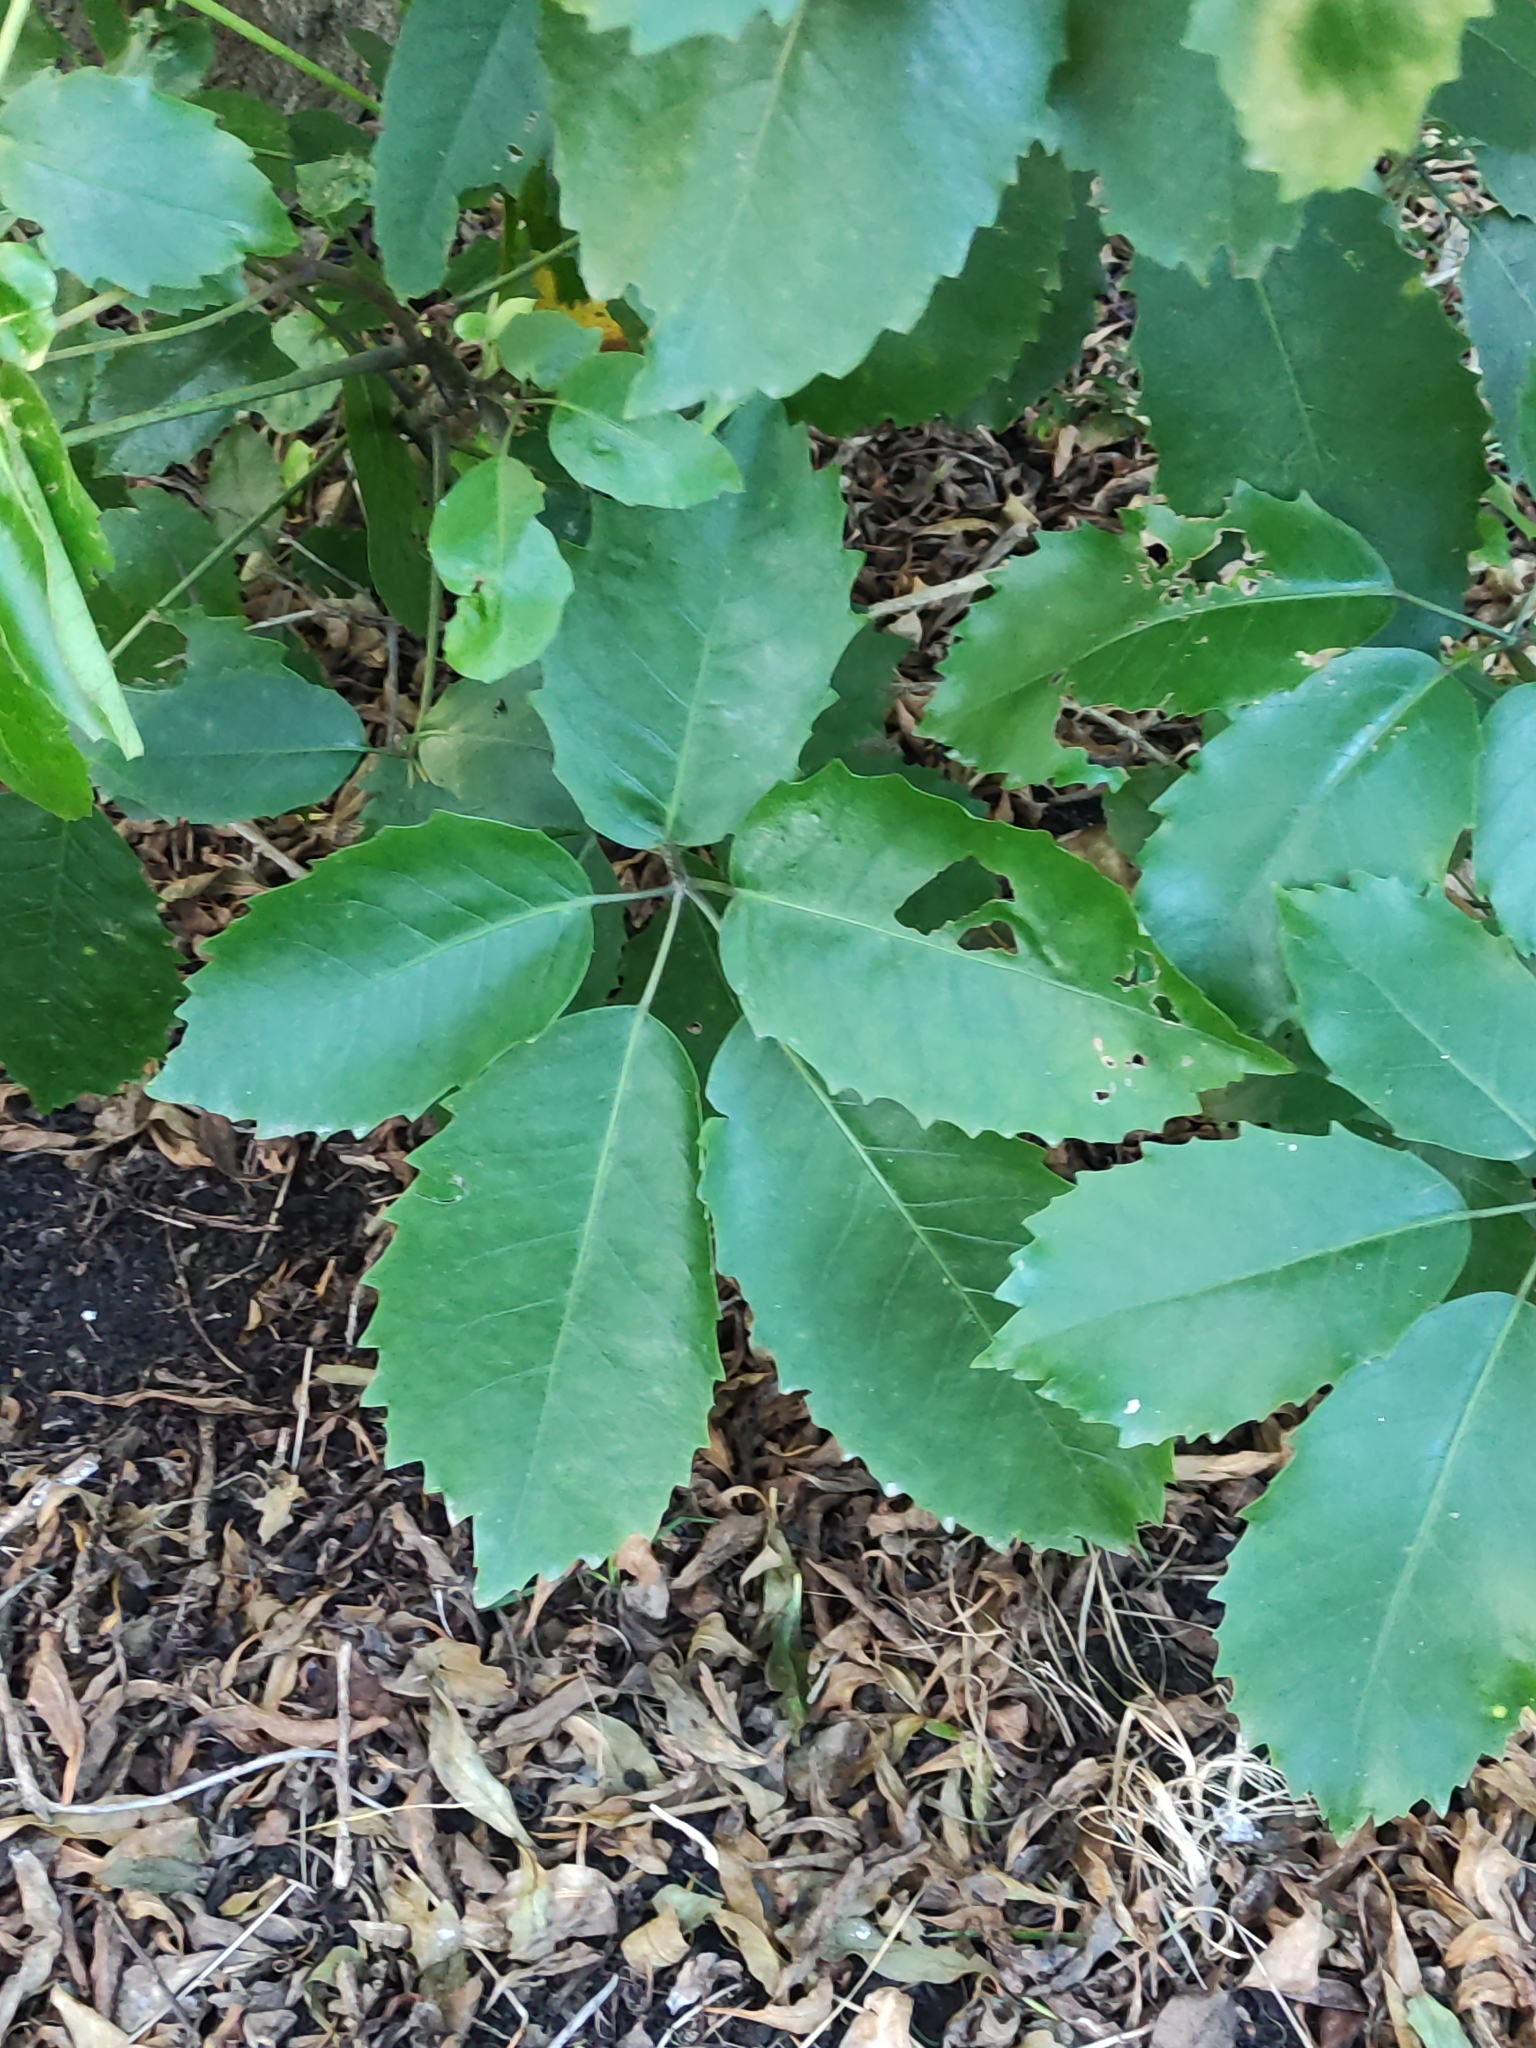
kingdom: Plantae
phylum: Tracheophyta
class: Magnoliopsida
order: Apiales
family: Araliaceae
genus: Neopanax
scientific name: Neopanax arboreus
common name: Five-fingers
